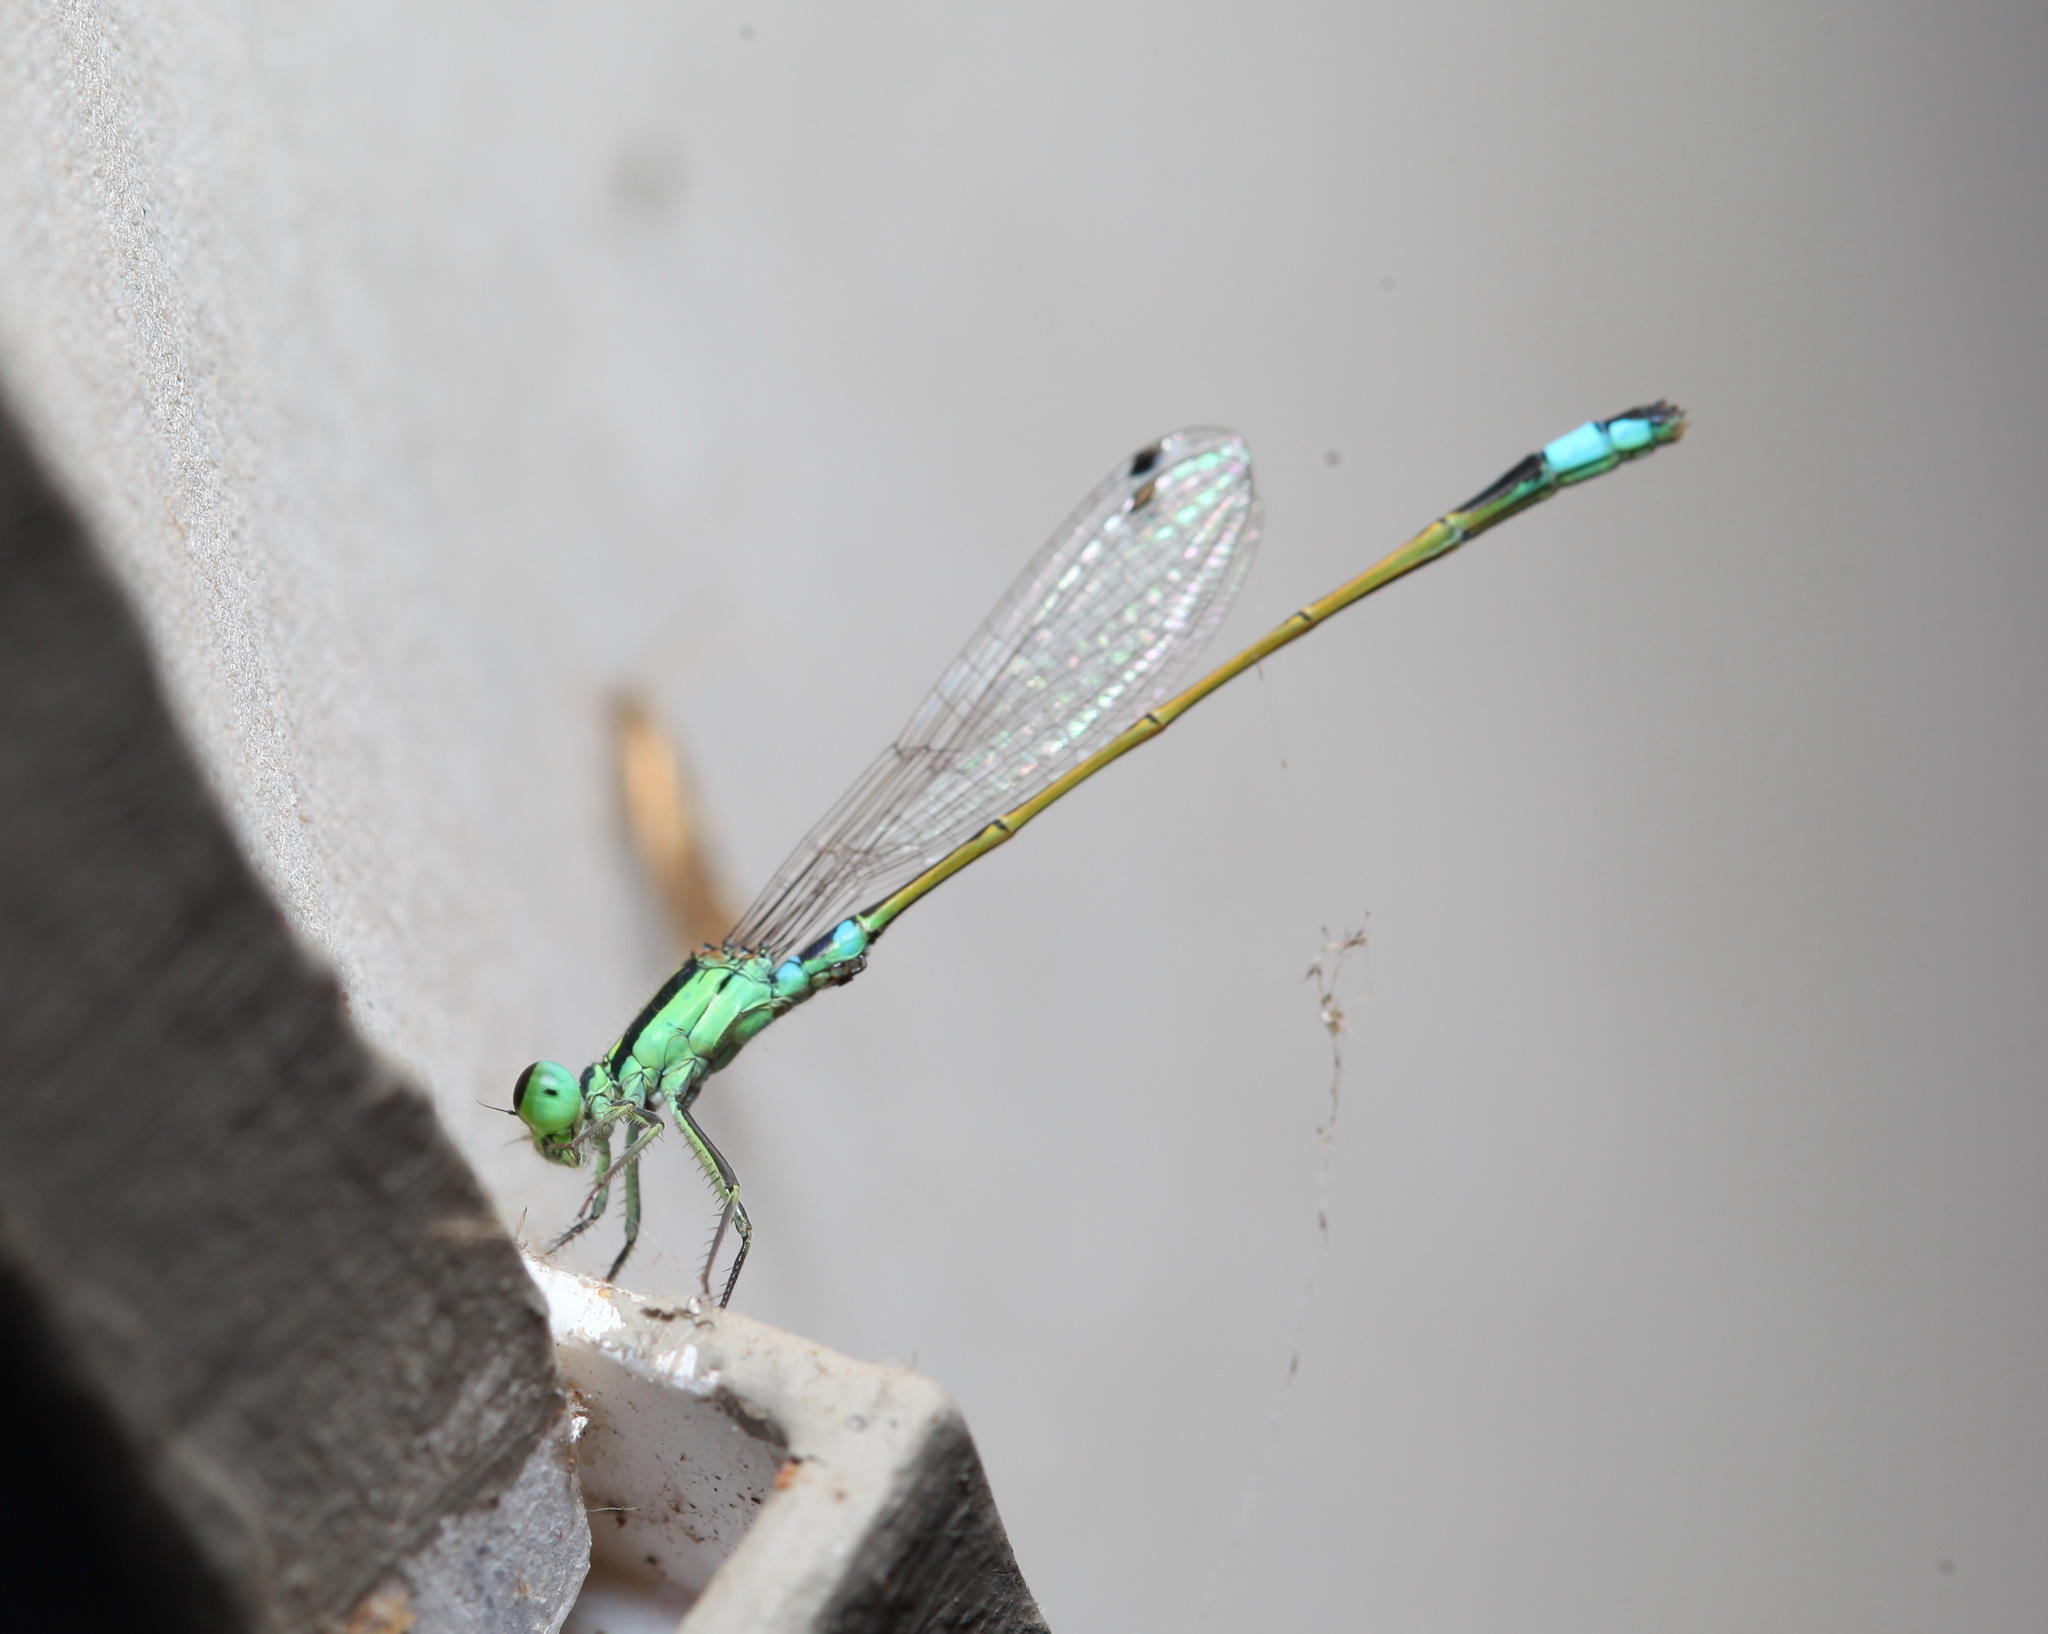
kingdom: Animalia
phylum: Arthropoda
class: Insecta
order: Odonata
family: Coenagrionidae
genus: Ischnura
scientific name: Ischnura senegalensis
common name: Tropical bluetail
